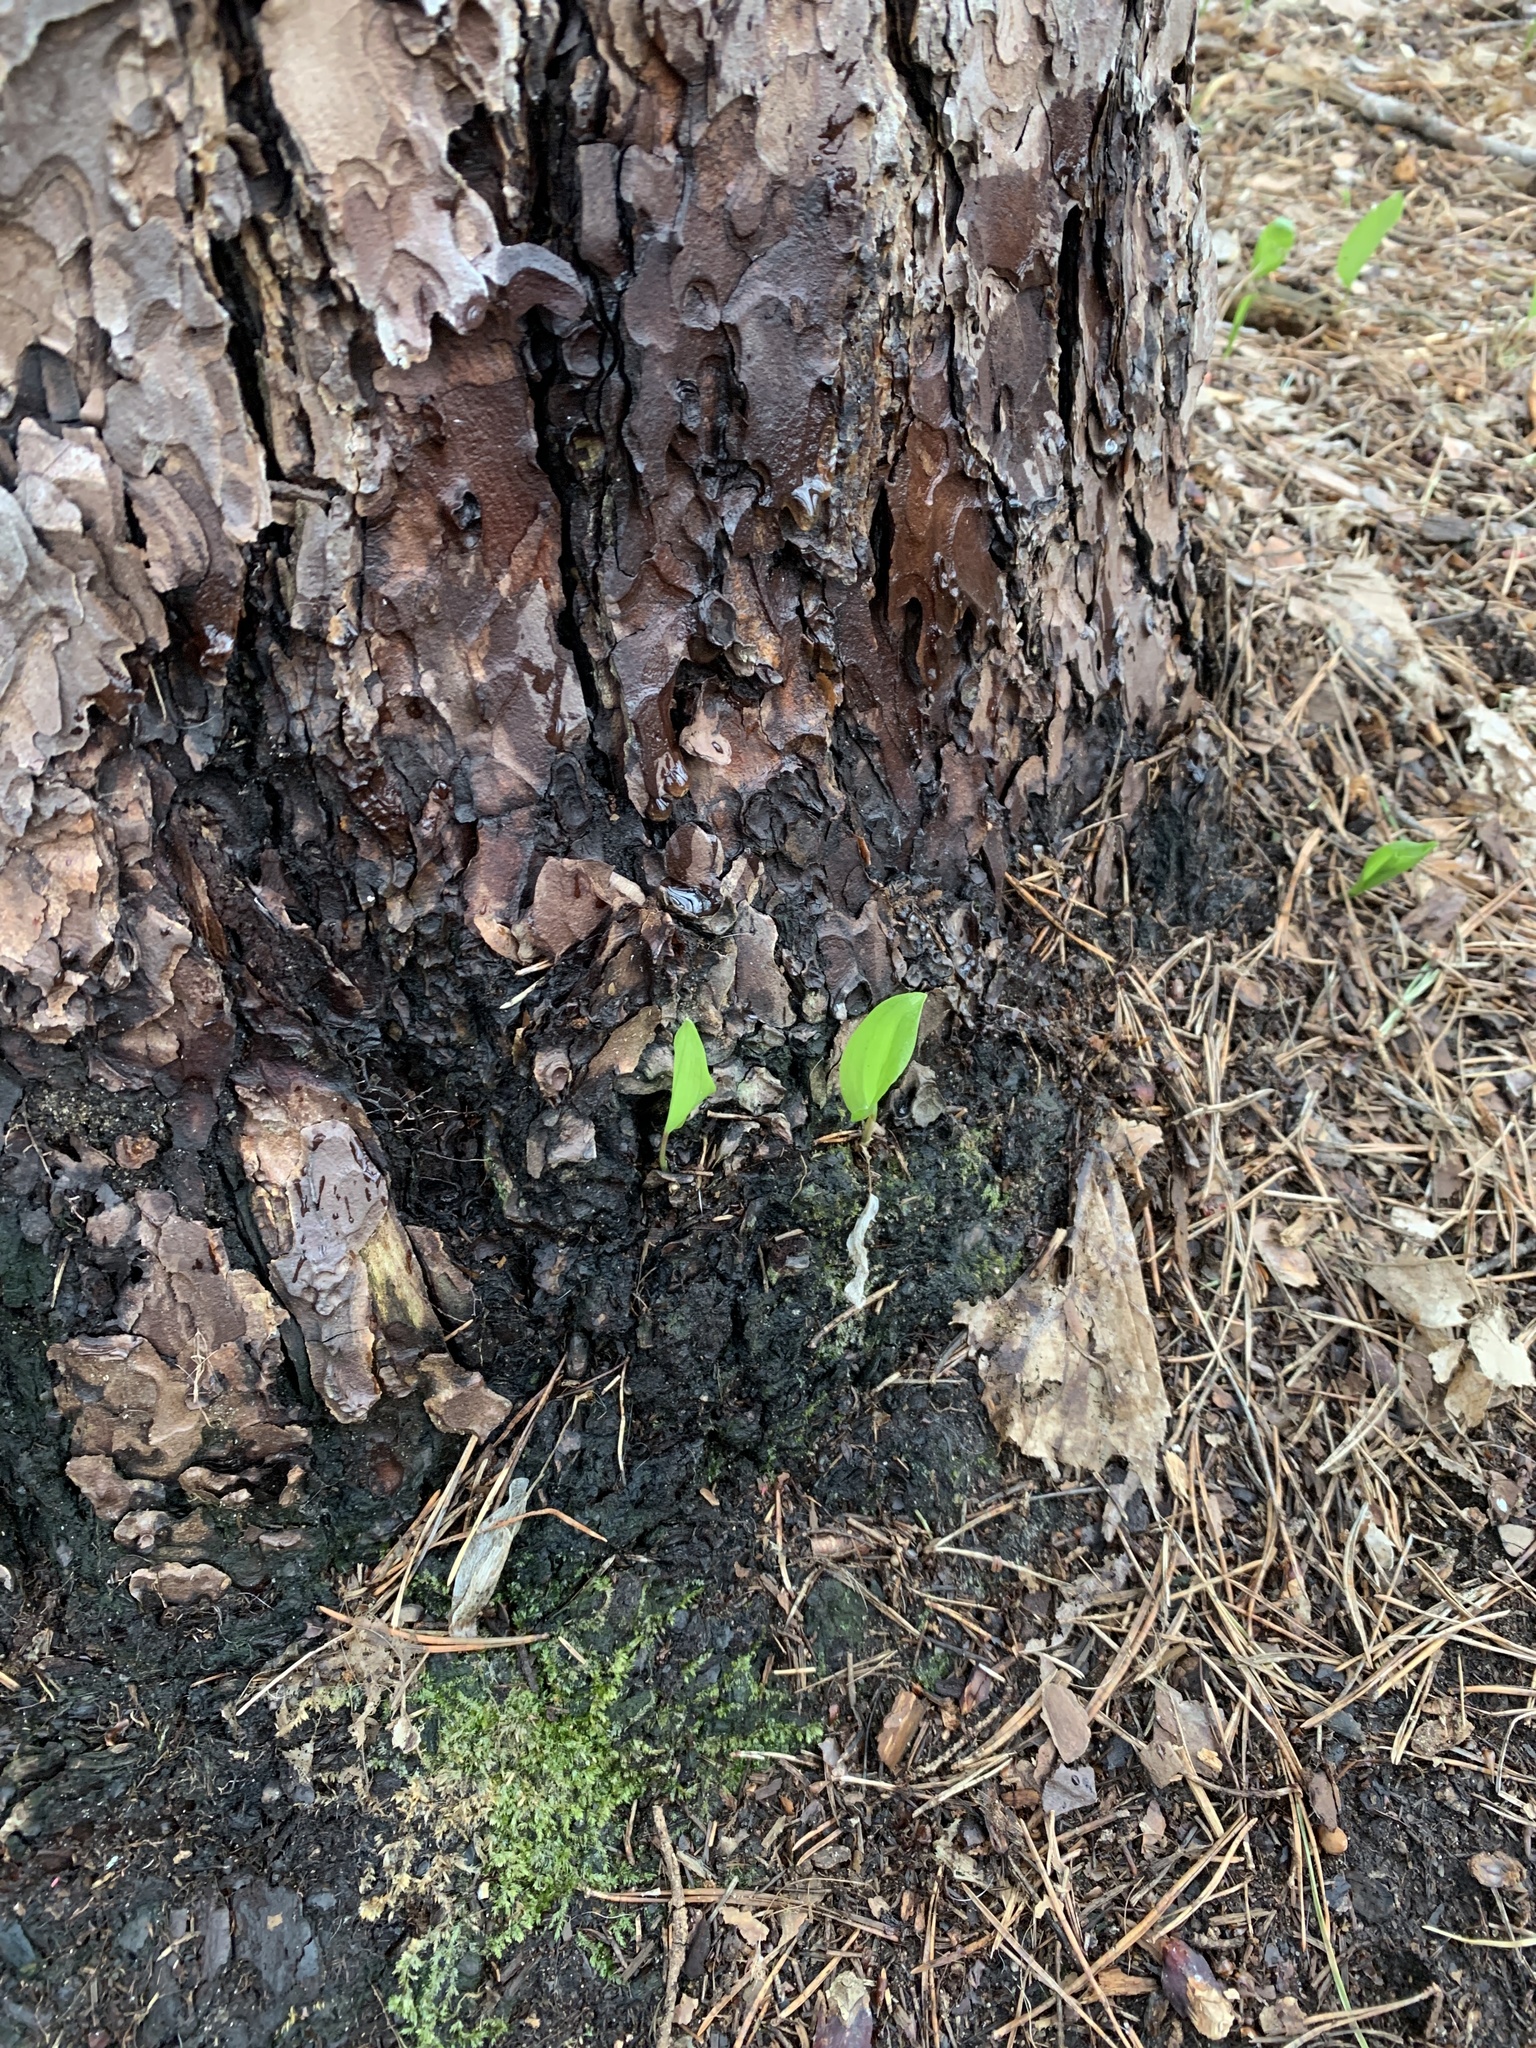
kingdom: Plantae
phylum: Tracheophyta
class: Liliopsida
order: Asparagales
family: Asparagaceae
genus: Maianthemum
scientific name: Maianthemum canadense
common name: False lily-of-the-valley
